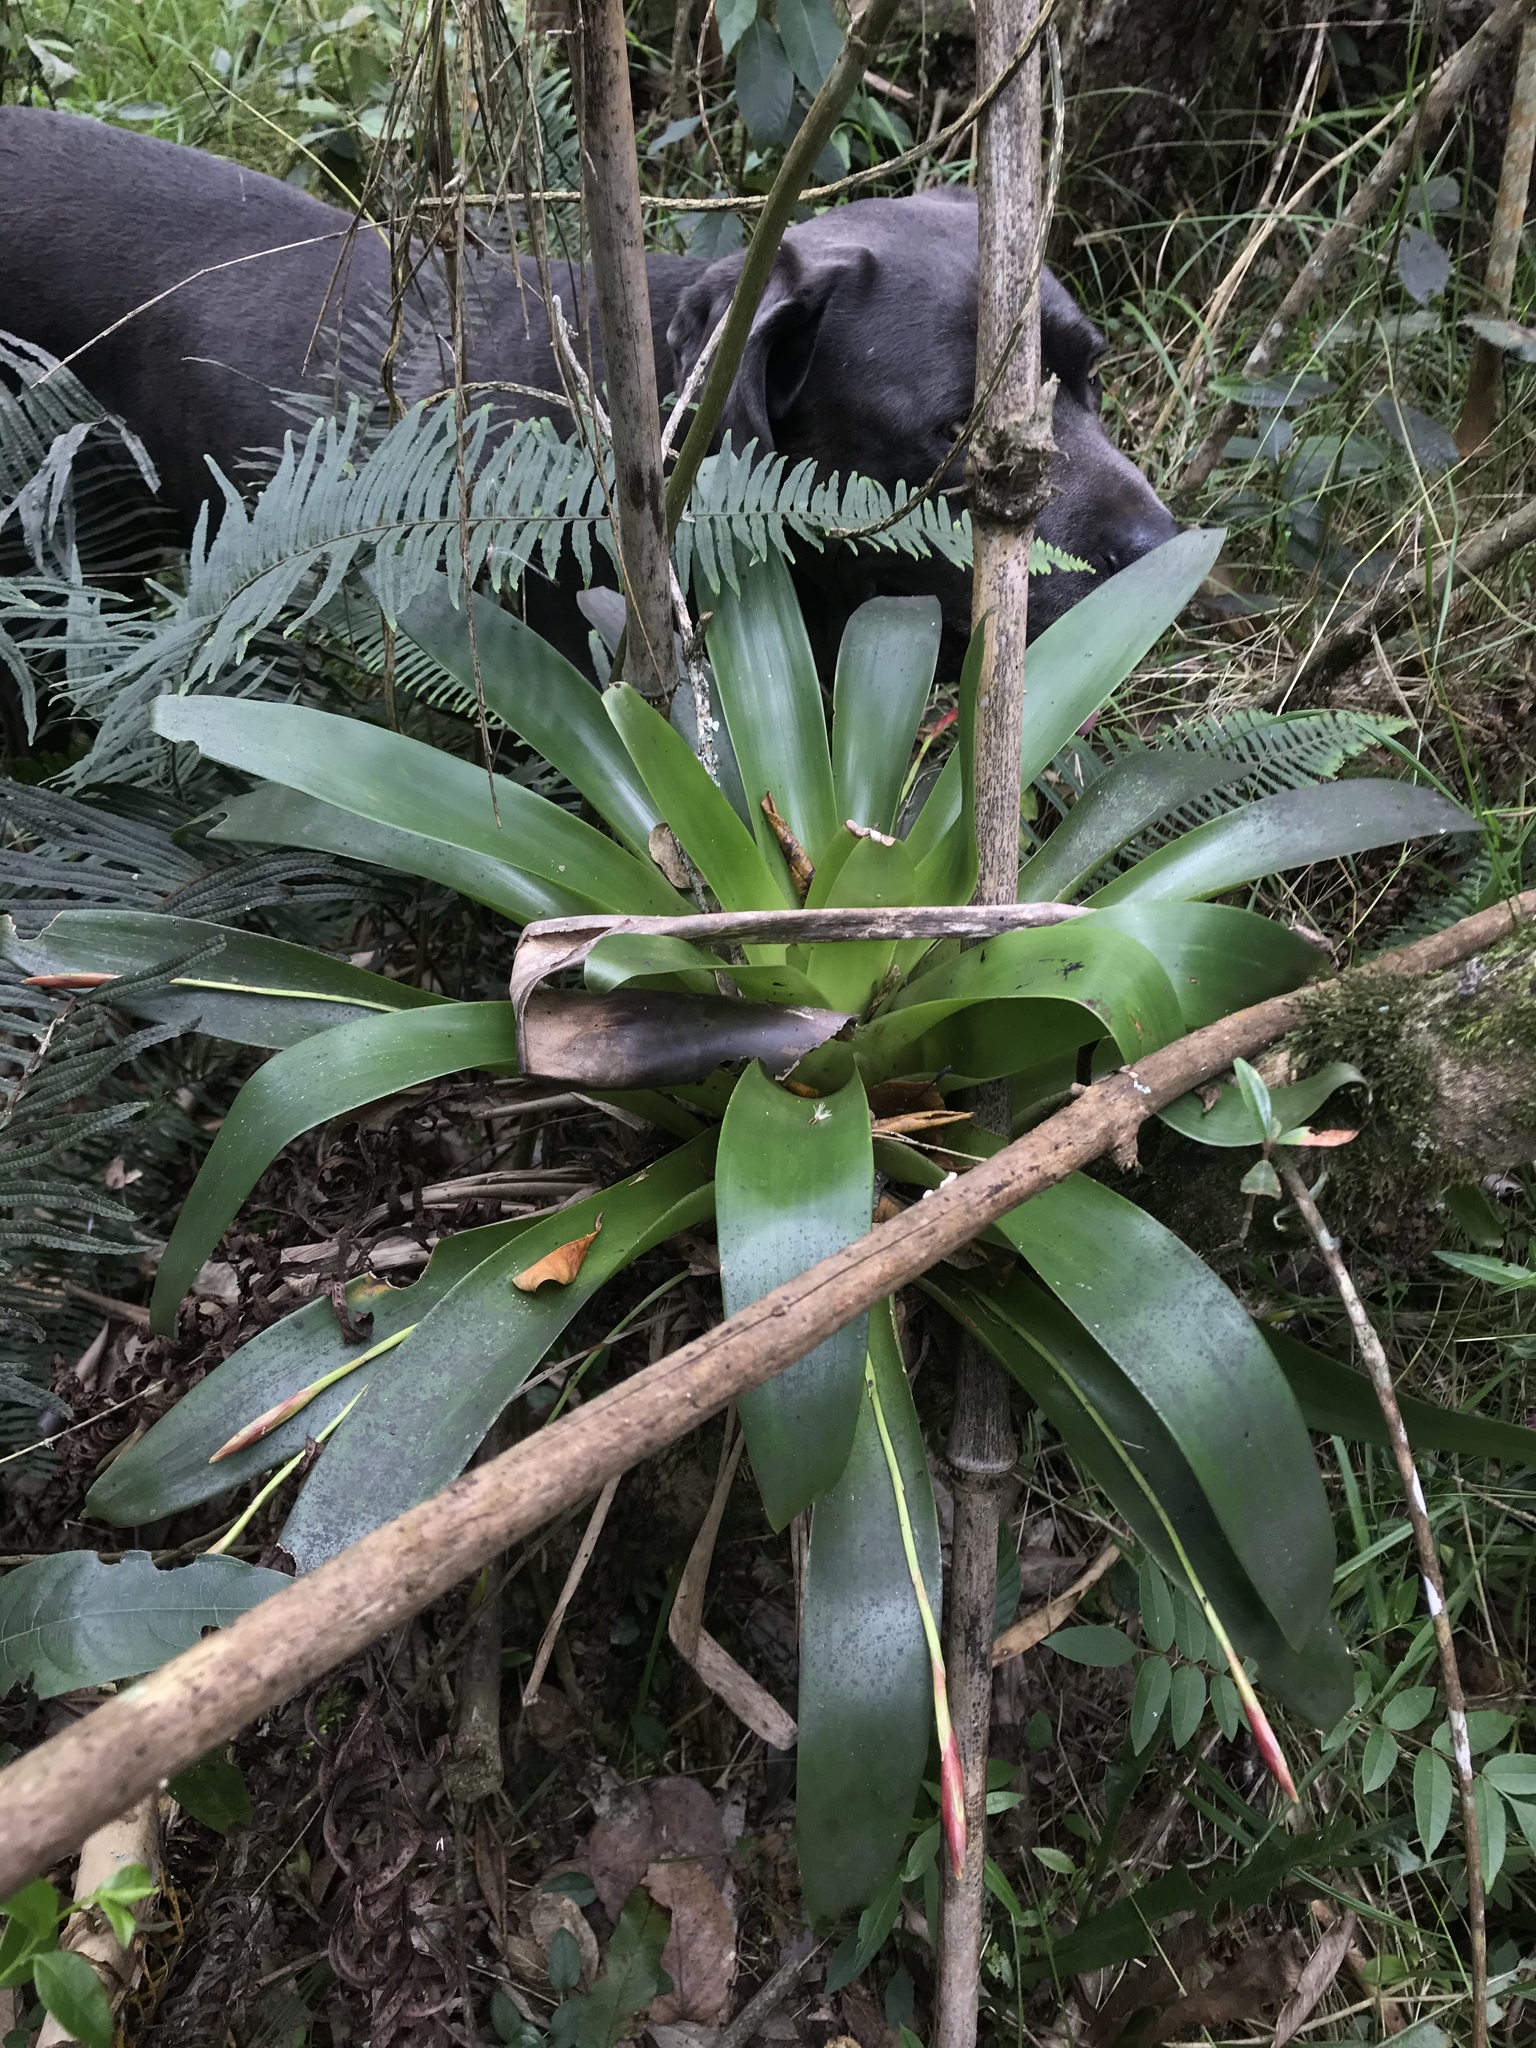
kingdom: Plantae
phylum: Tracheophyta
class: Liliopsida
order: Poales
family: Bromeliaceae
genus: Tillandsia
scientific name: Tillandsia complanata
